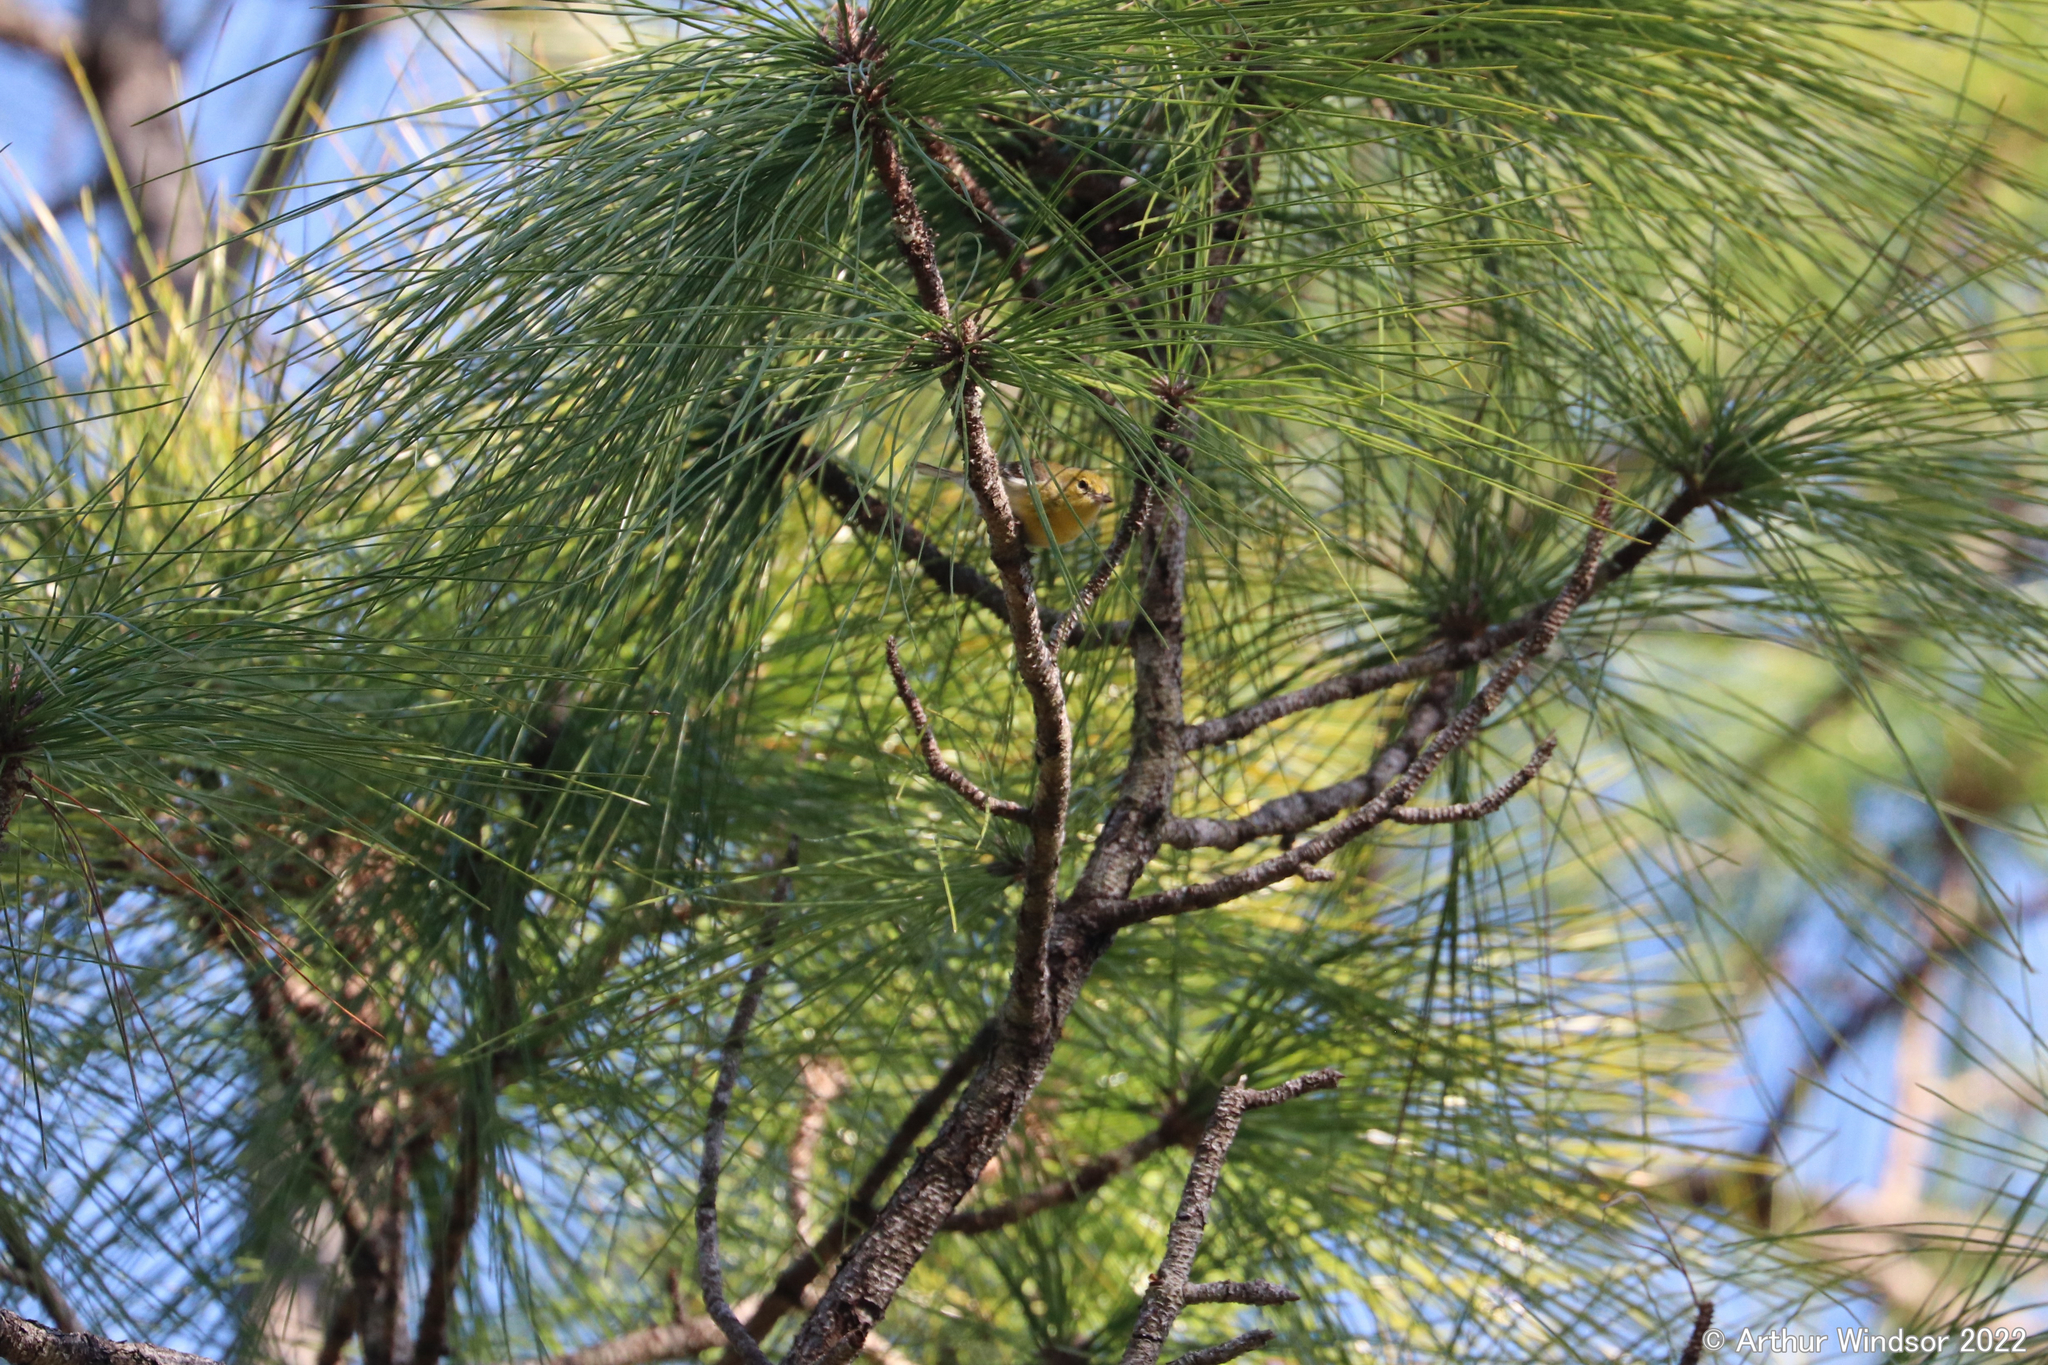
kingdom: Animalia
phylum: Chordata
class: Aves
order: Passeriformes
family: Parulidae
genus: Setophaga
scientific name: Setophaga pinus
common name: Pine warbler
